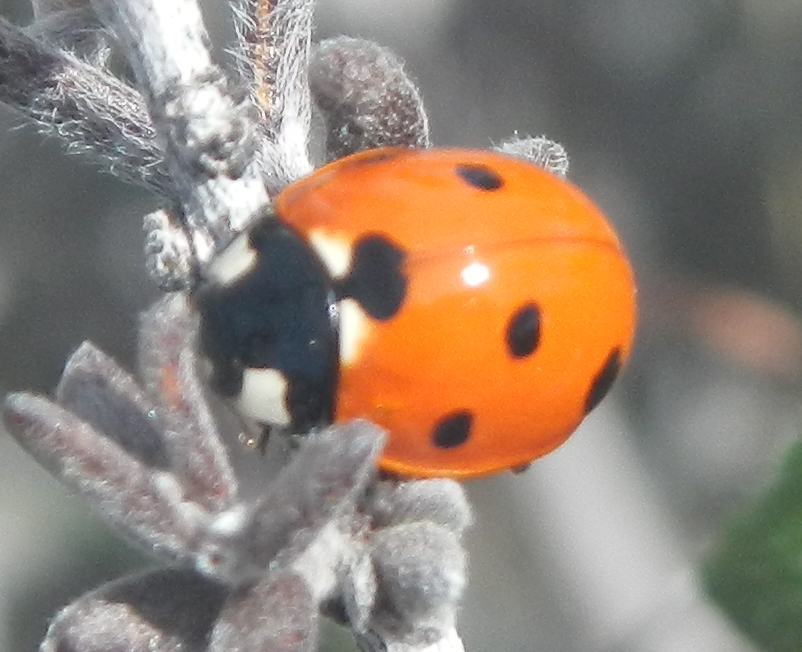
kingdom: Animalia
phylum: Arthropoda
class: Insecta
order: Coleoptera
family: Coccinellidae
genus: Coccinella
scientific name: Coccinella septempunctata
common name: Sevenspotted lady beetle
